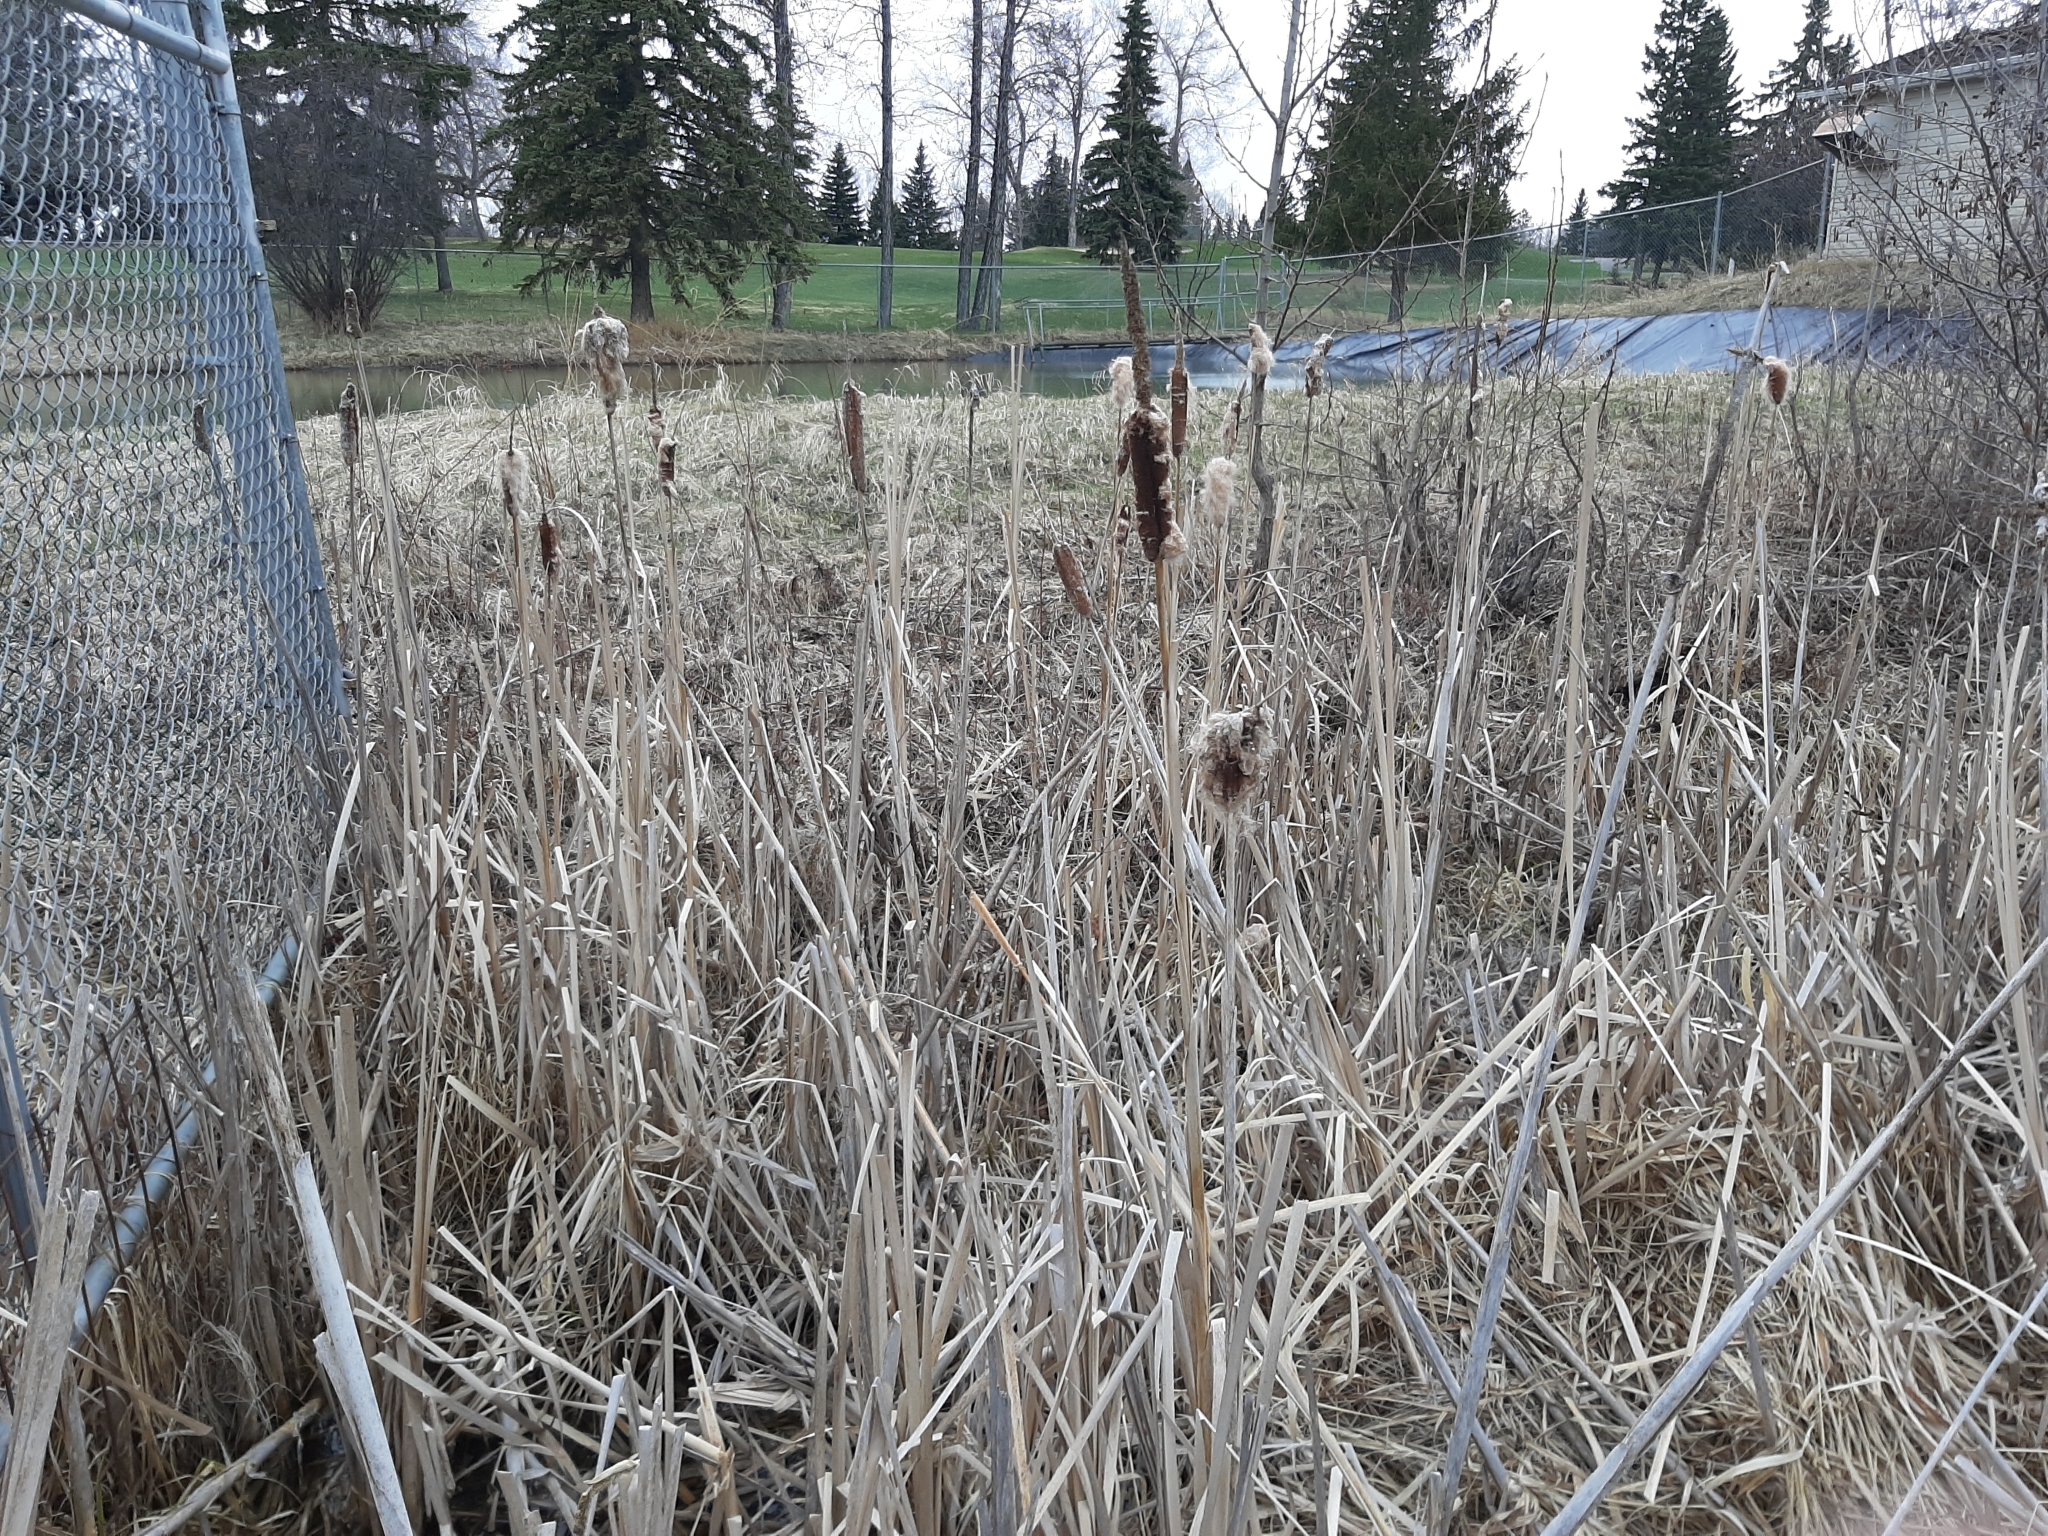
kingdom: Plantae
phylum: Tracheophyta
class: Liliopsida
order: Poales
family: Typhaceae
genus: Typha
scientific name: Typha latifolia
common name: Broadleaf cattail
